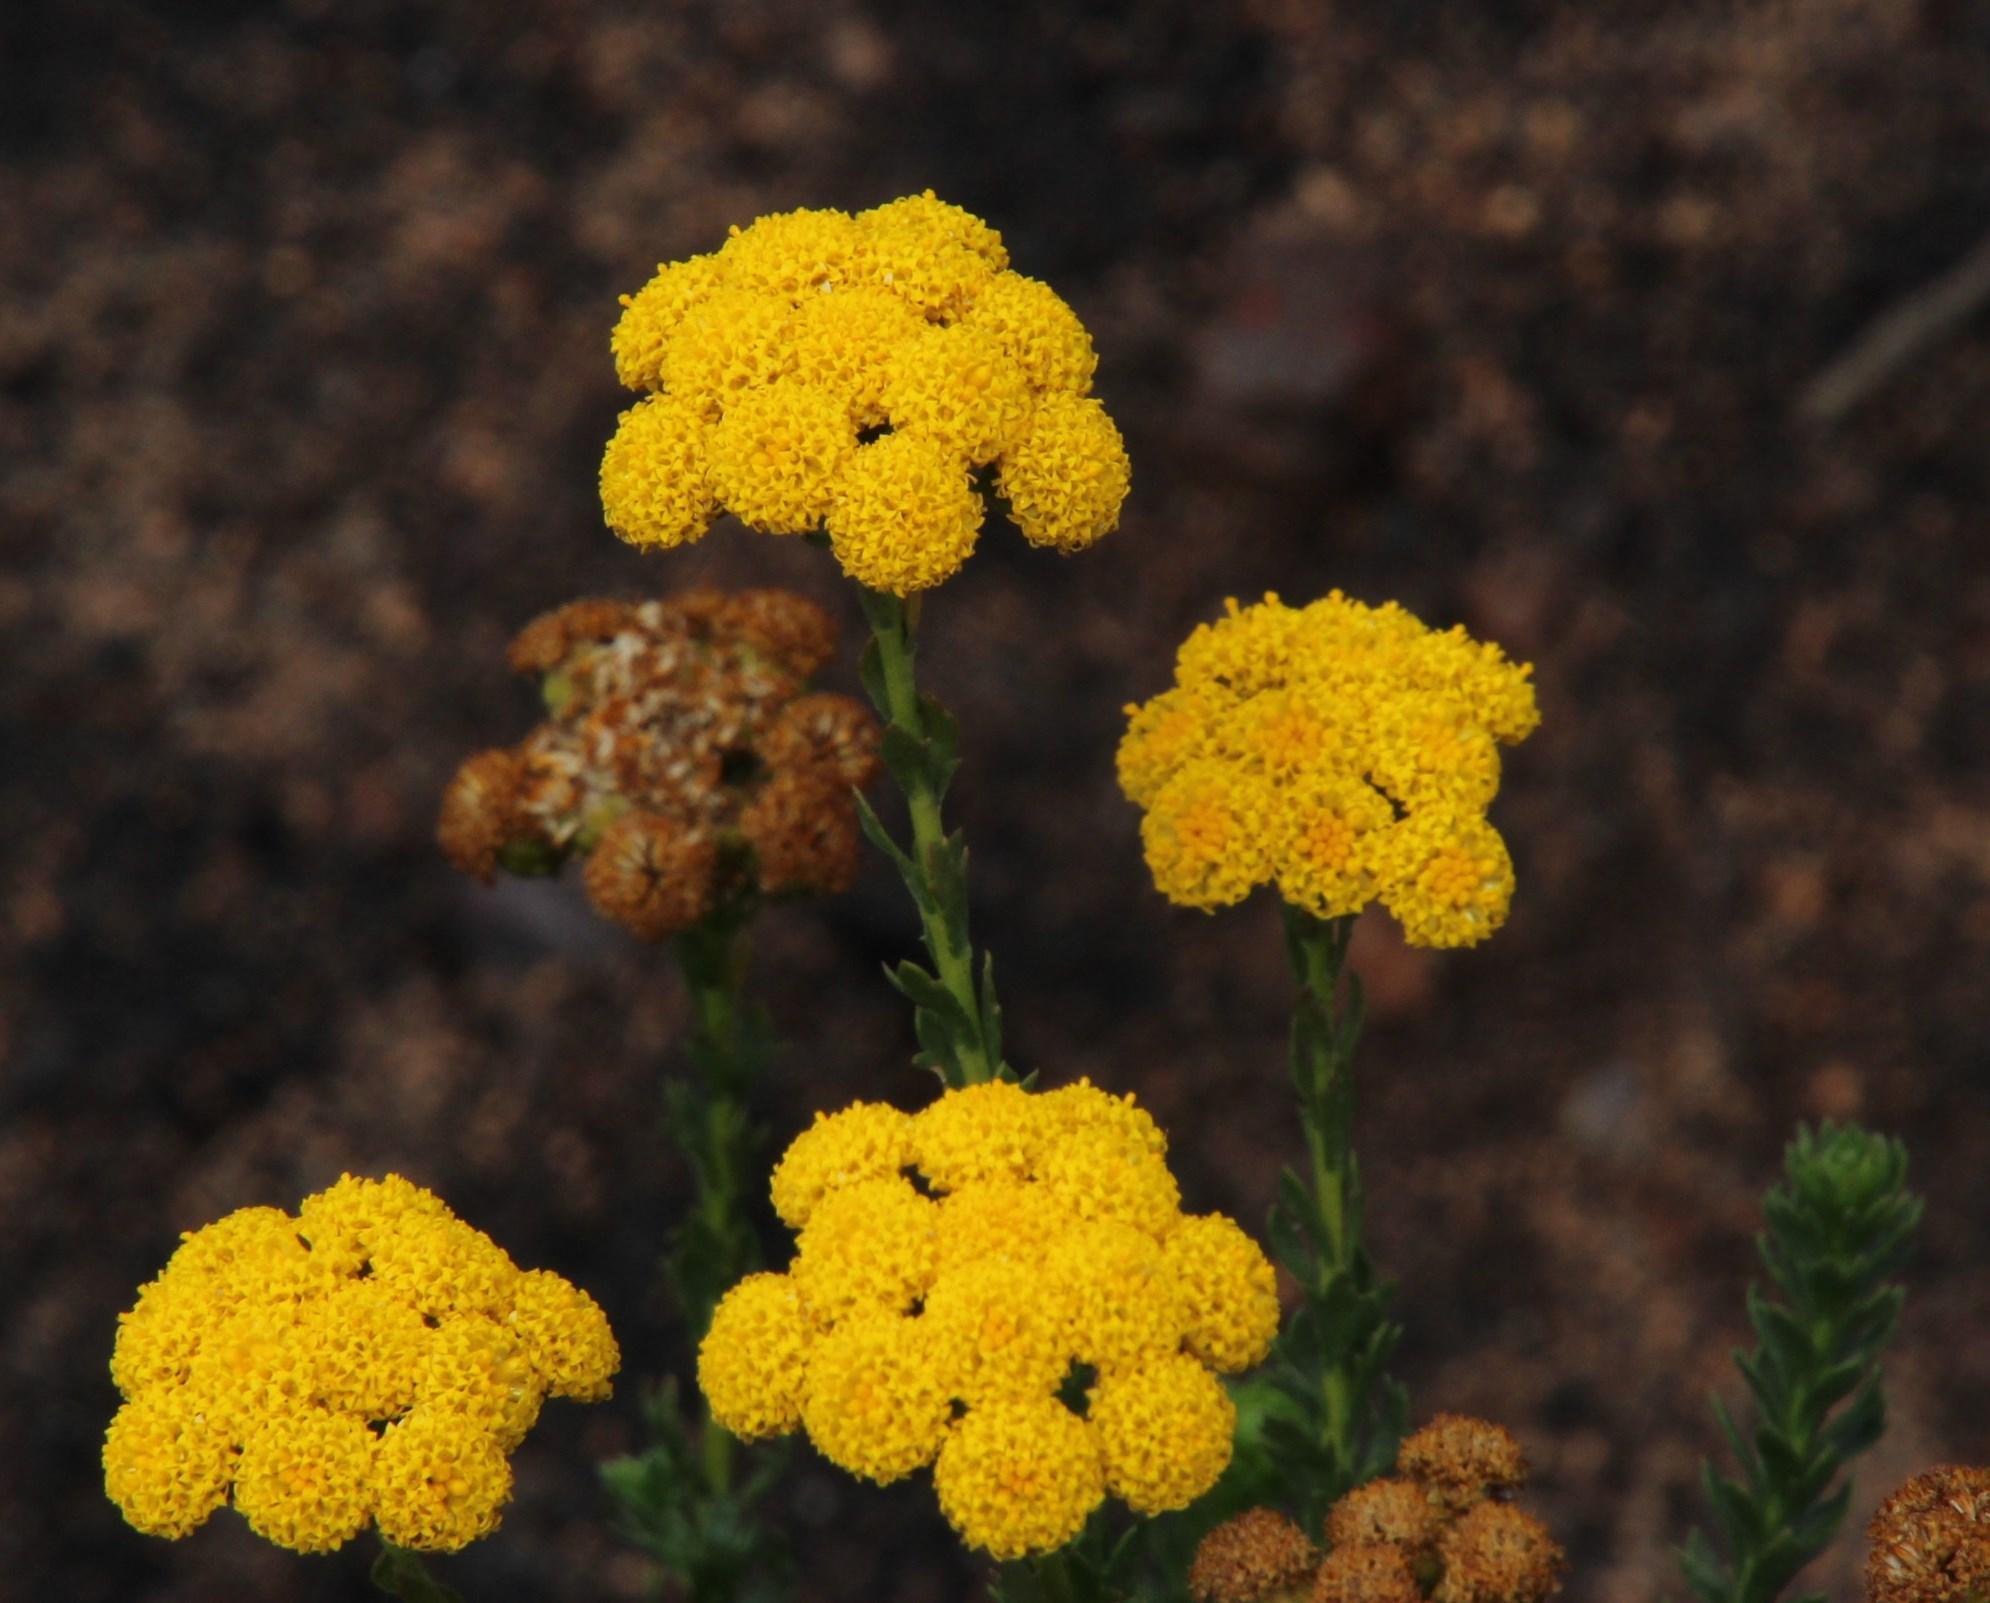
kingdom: Plantae
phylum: Tracheophyta
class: Magnoliopsida
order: Asterales
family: Asteraceae
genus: Athanasia
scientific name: Athanasia trifurcata
